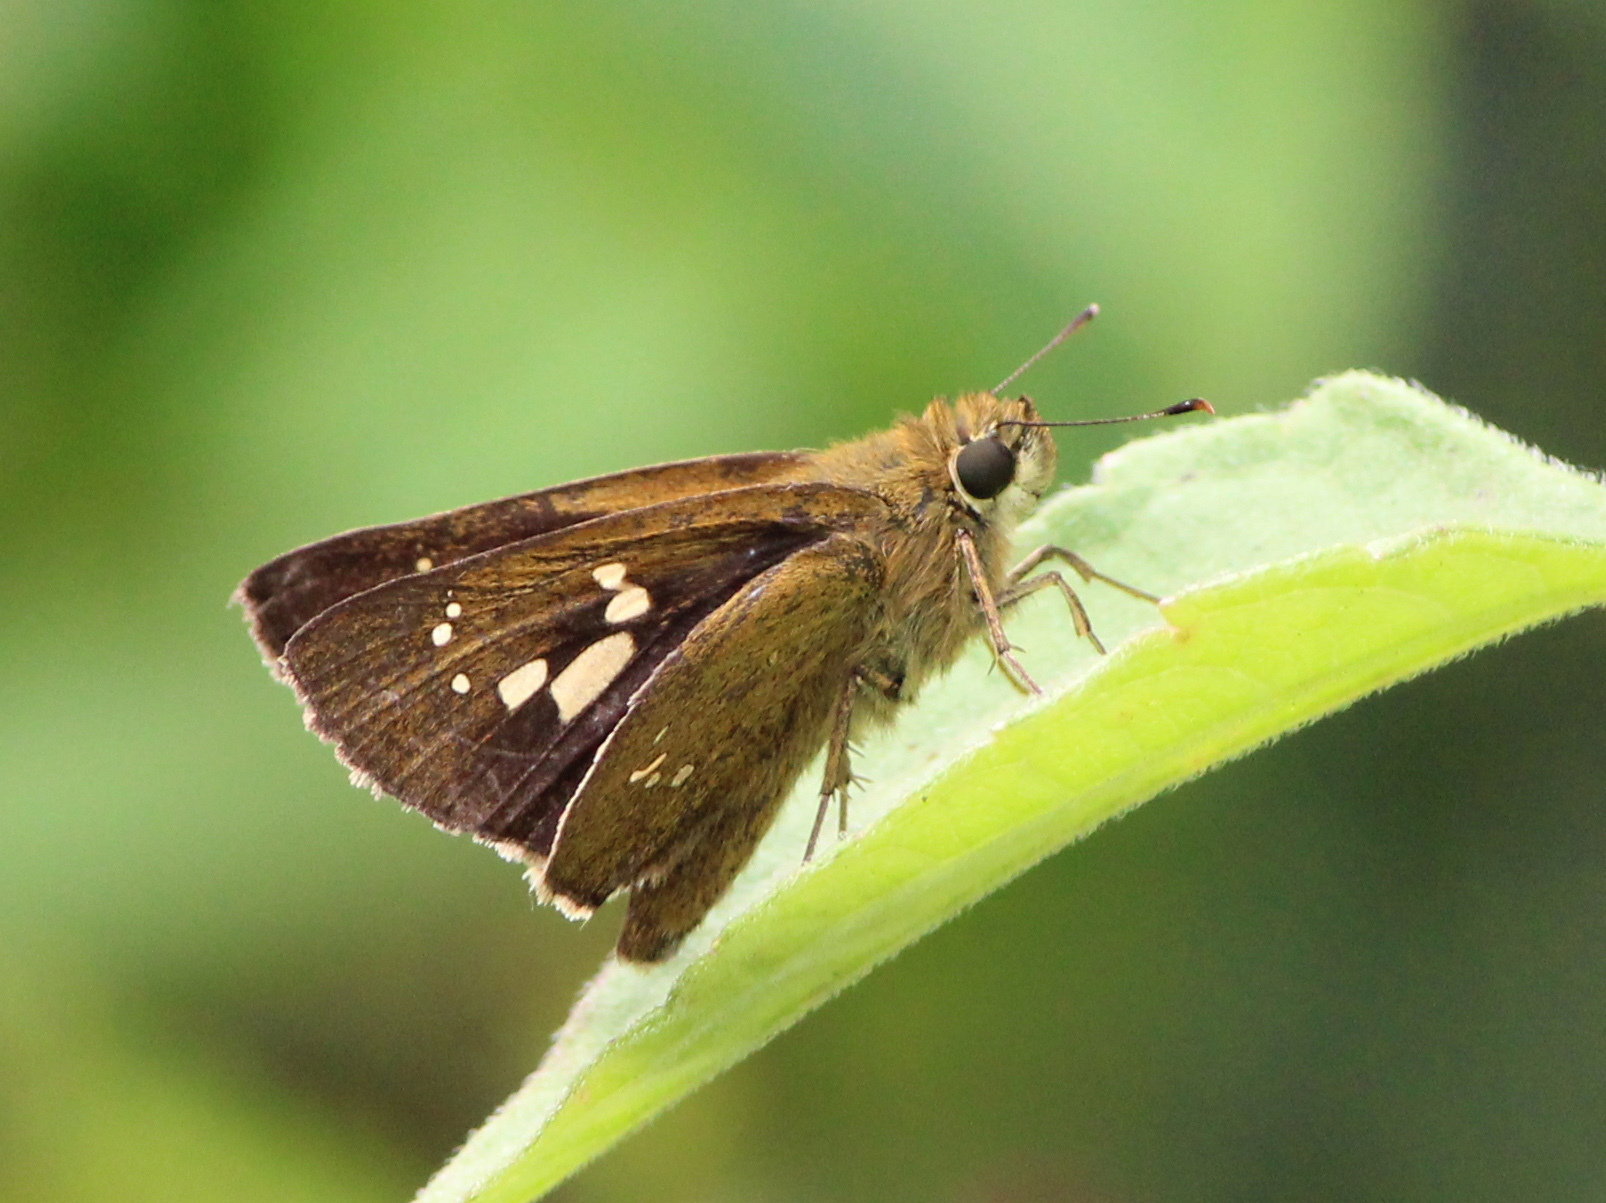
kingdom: Animalia
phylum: Arthropoda
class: Insecta
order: Lepidoptera
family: Hesperiidae
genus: Polytremis
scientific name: Polytremis lubricans
